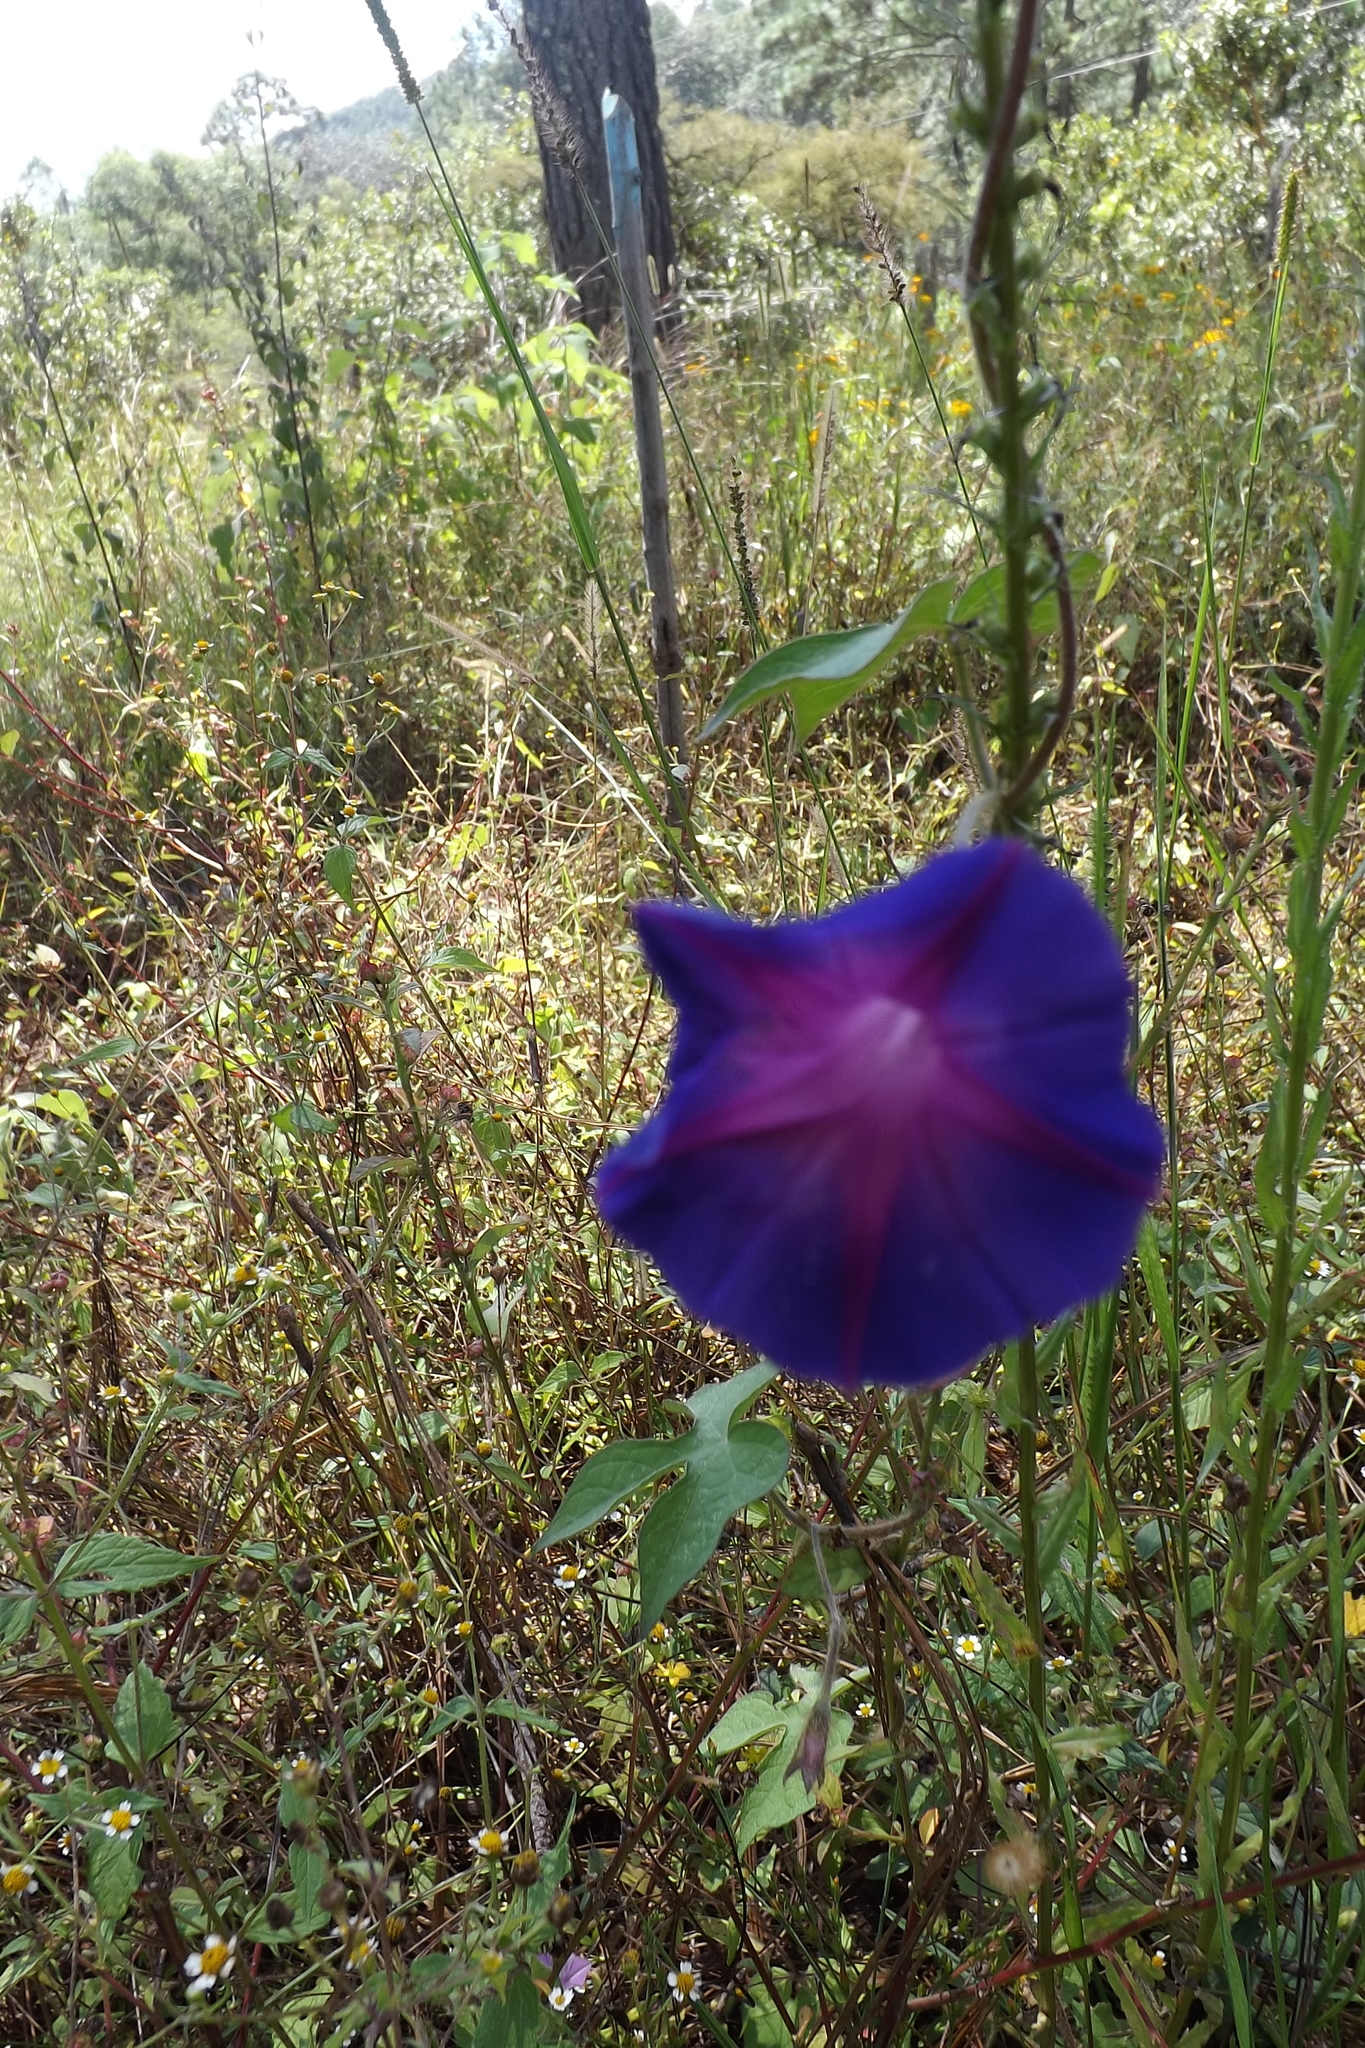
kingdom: Plantae
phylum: Tracheophyta
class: Magnoliopsida
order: Solanales
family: Convolvulaceae
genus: Ipomoea
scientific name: Ipomoea purpurea
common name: Common morning-glory
